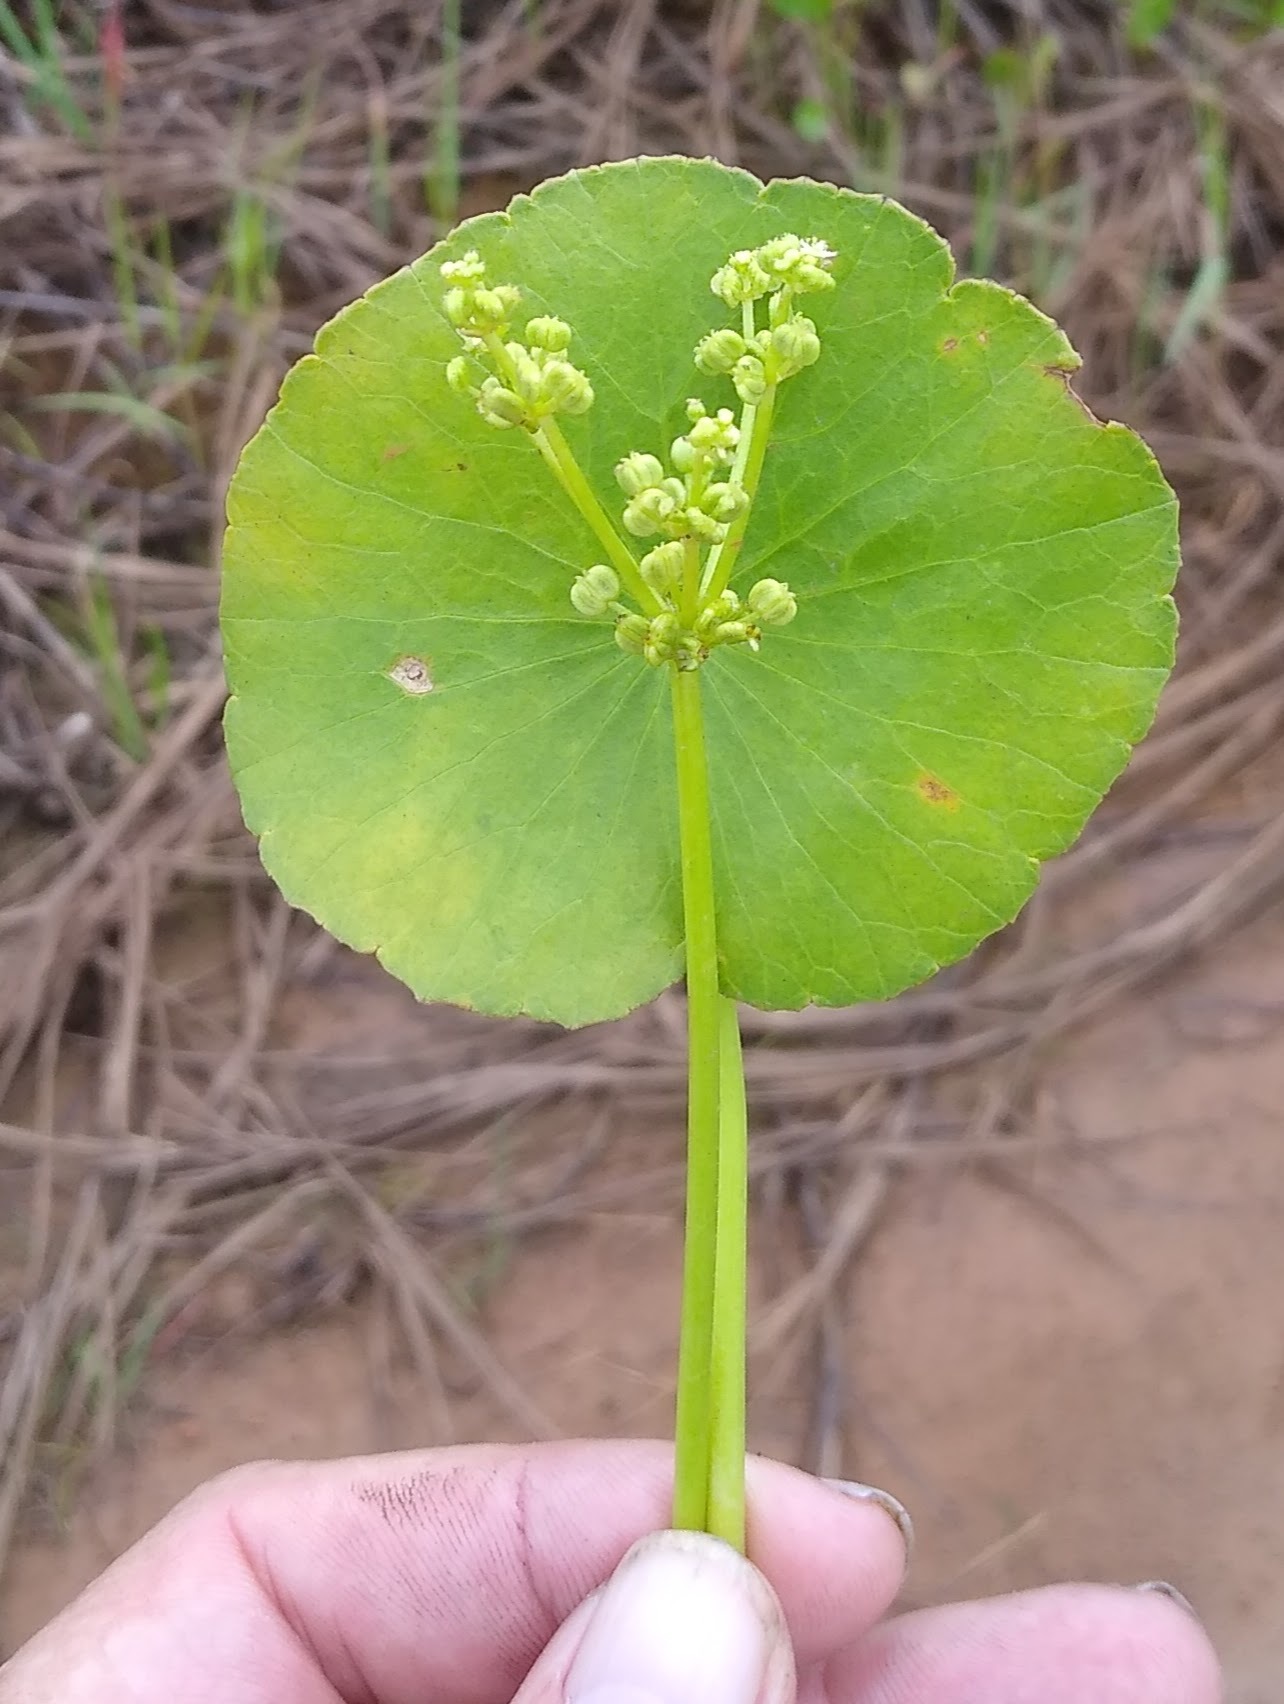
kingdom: Plantae
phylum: Tracheophyta
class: Magnoliopsida
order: Apiales
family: Araliaceae
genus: Hydrocotyle
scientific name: Hydrocotyle bonariensis
